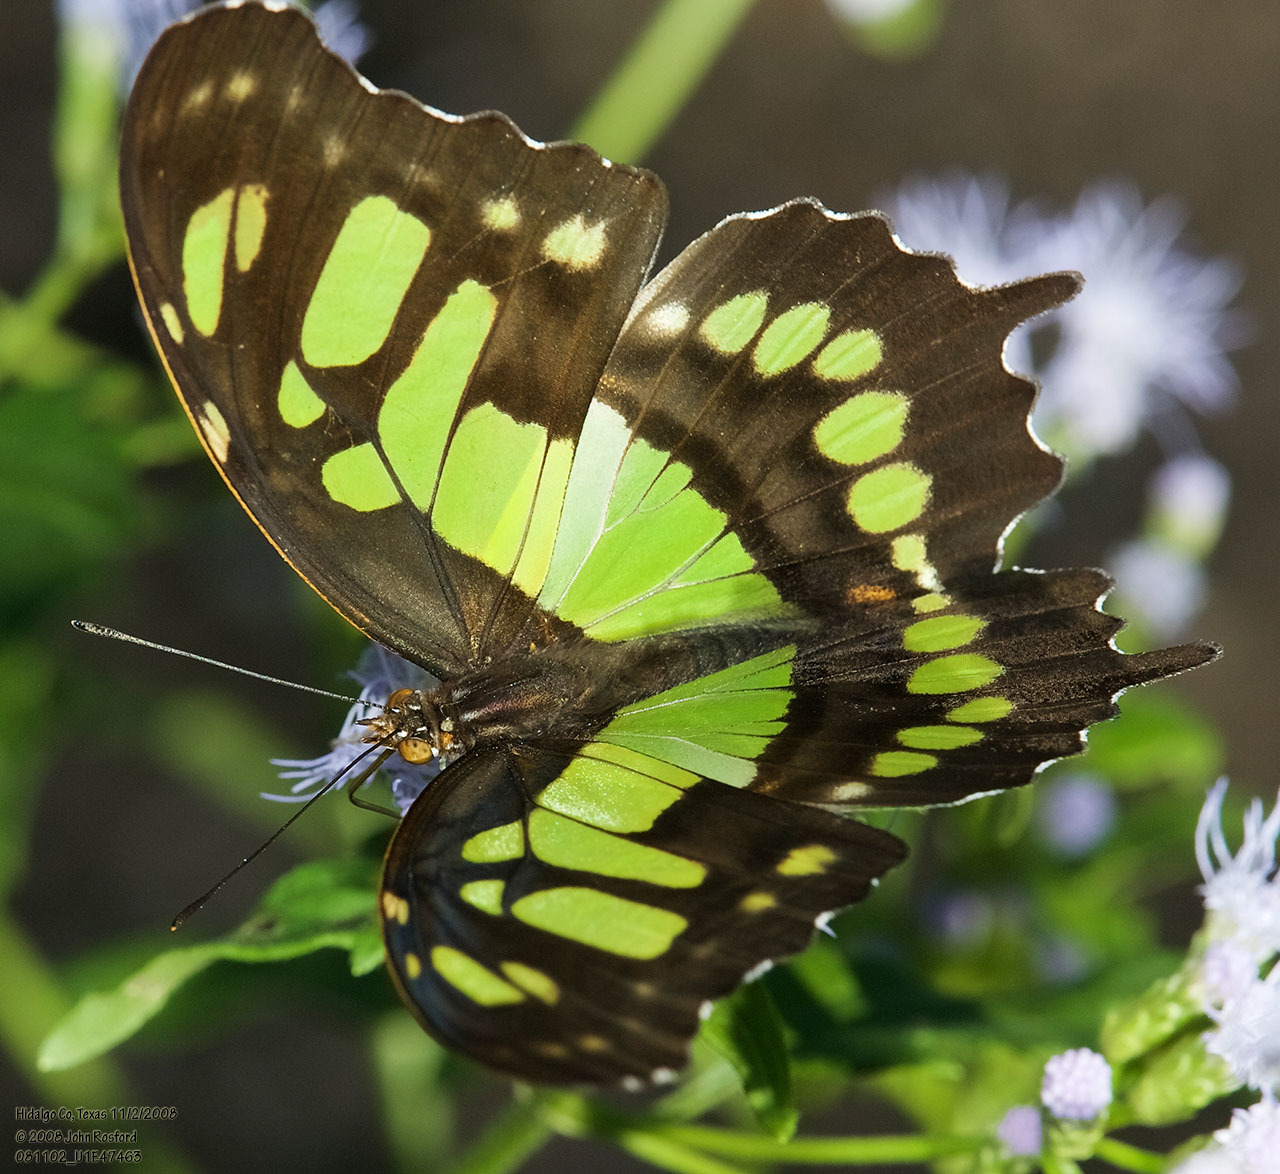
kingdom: Animalia
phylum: Arthropoda
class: Insecta
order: Lepidoptera
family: Nymphalidae
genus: Siproeta
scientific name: Siproeta stelenes
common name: Malachite
